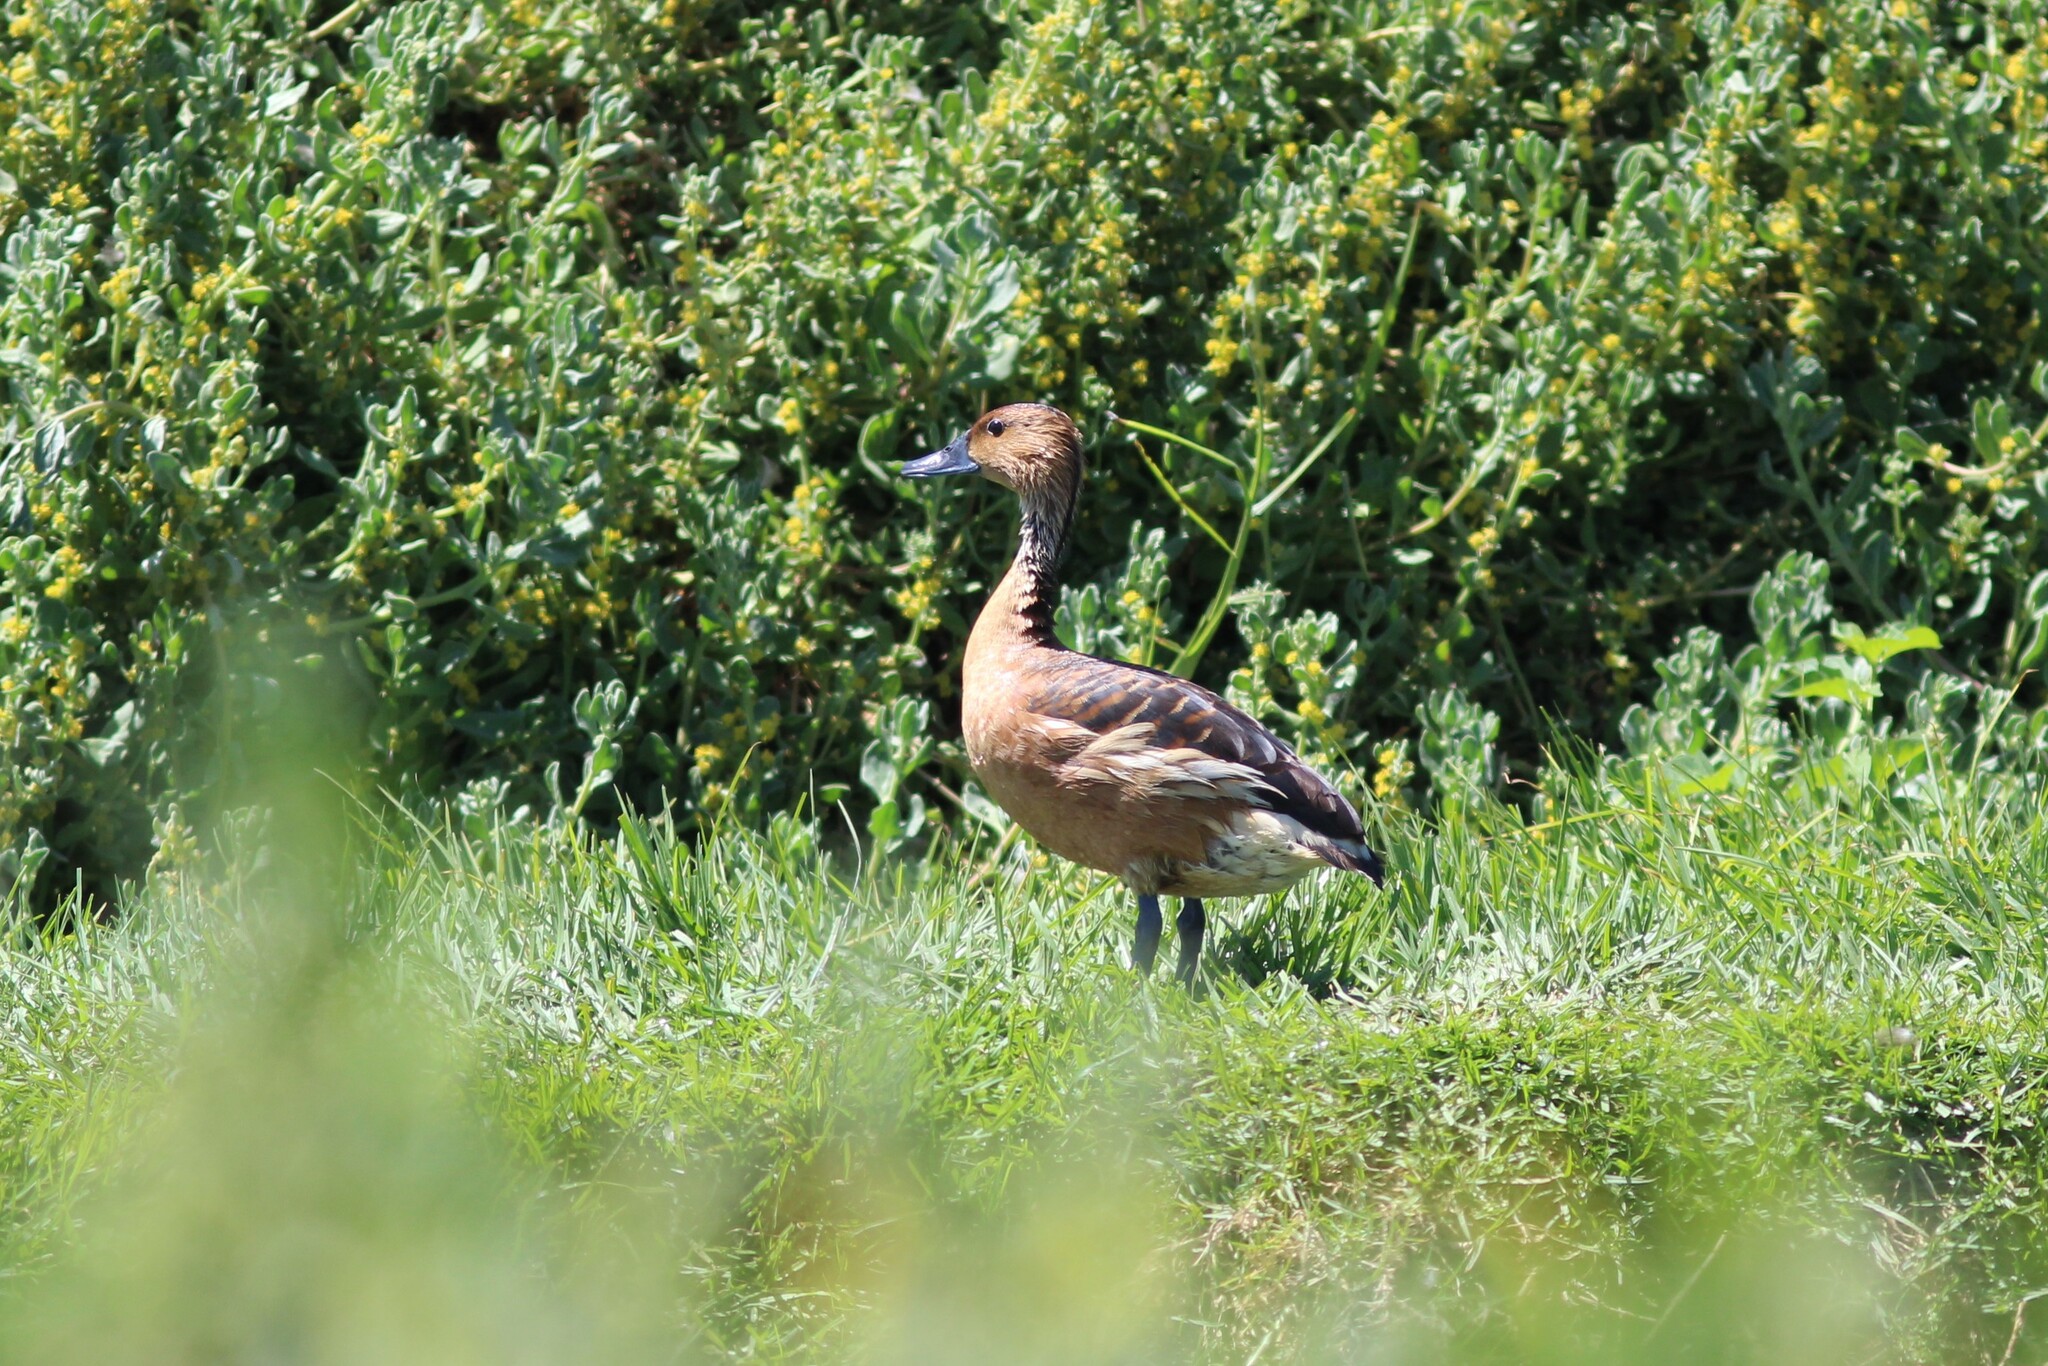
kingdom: Animalia
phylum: Chordata
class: Aves
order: Anseriformes
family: Anatidae
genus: Dendrocygna
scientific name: Dendrocygna bicolor
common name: Fulvous whistling duck
